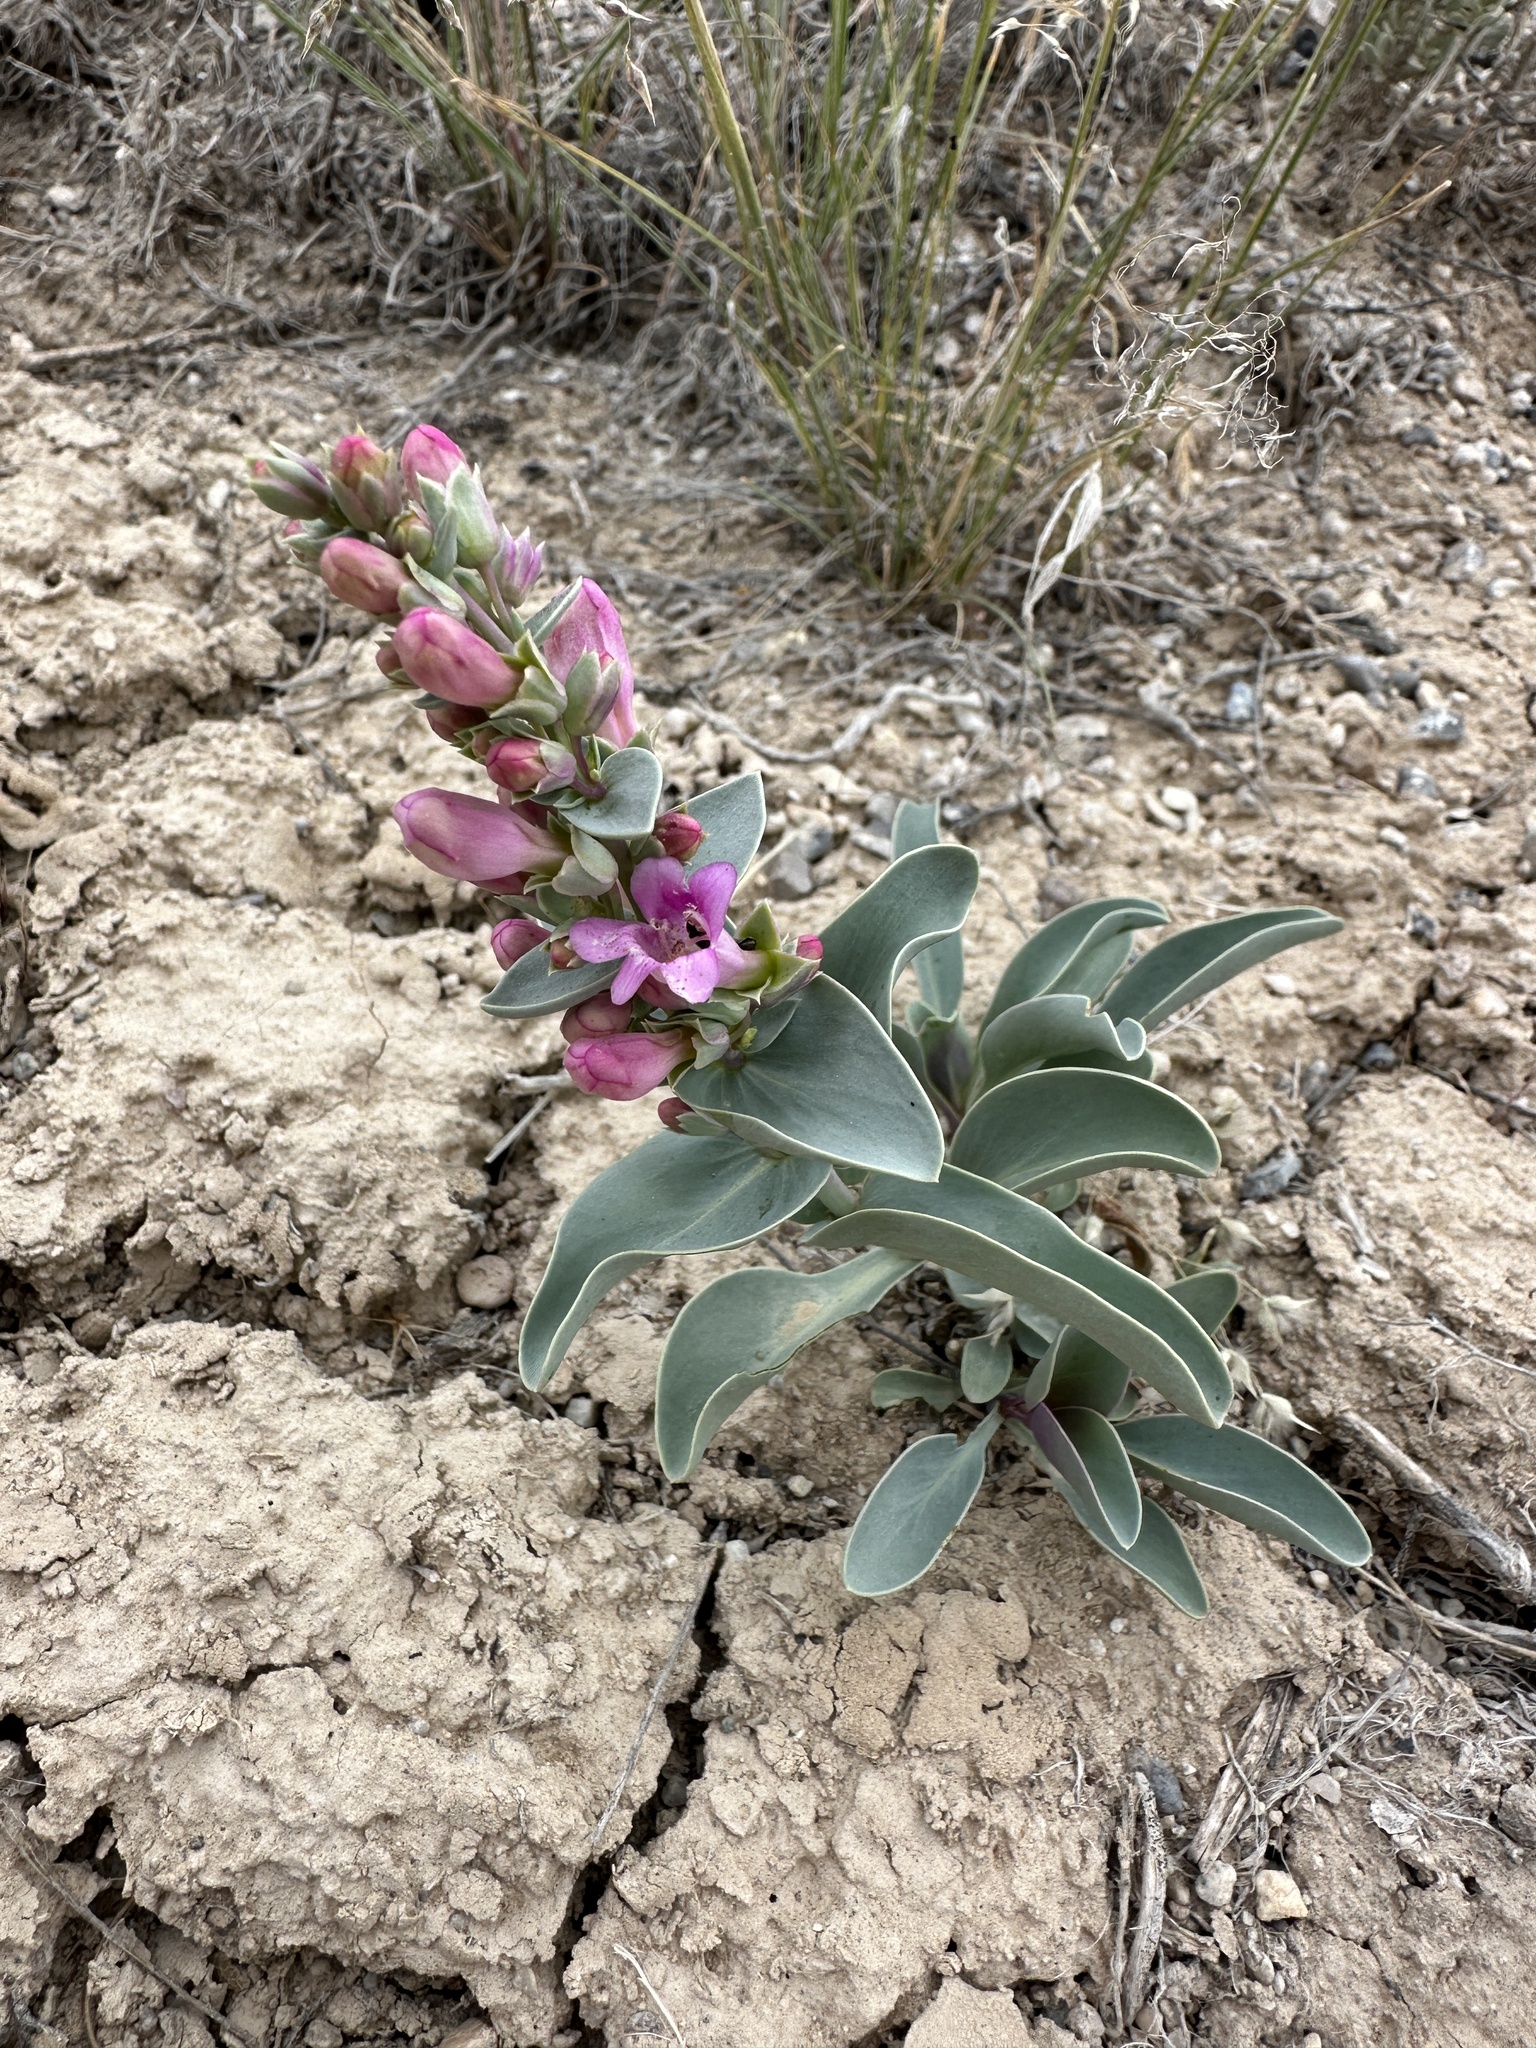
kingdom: Plantae
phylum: Tracheophyta
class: Magnoliopsida
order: Lamiales
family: Plantaginaceae
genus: Penstemon
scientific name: Penstemon immanifestus
